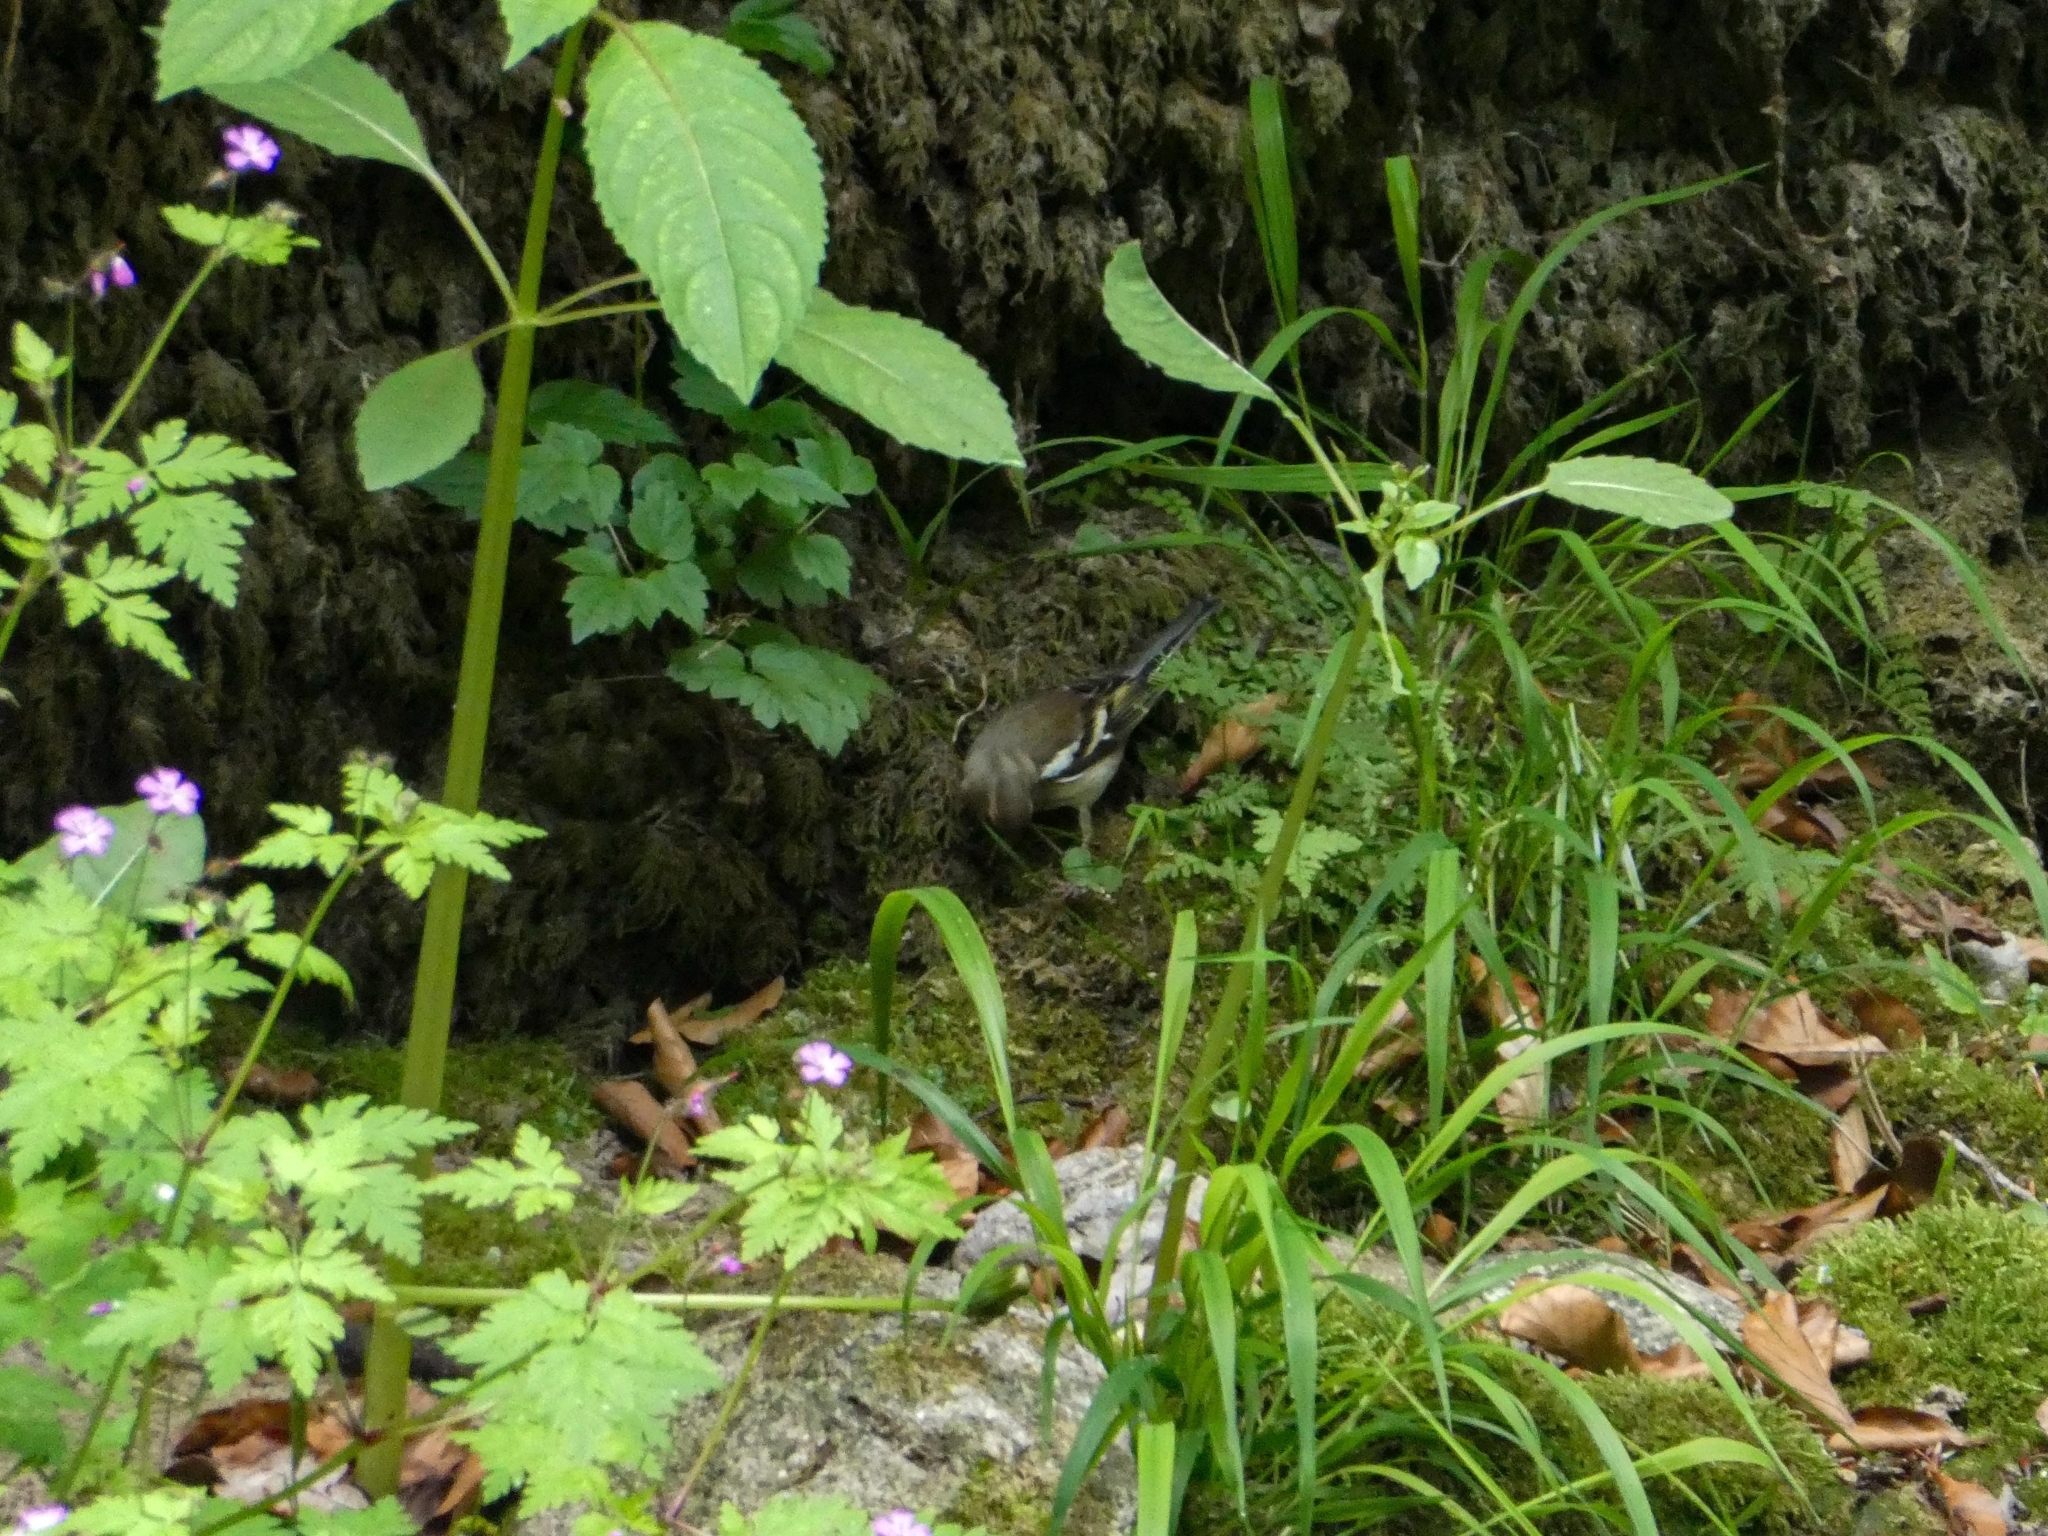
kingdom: Animalia
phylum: Chordata
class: Aves
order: Passeriformes
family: Fringillidae
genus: Fringilla
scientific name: Fringilla coelebs
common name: Common chaffinch
